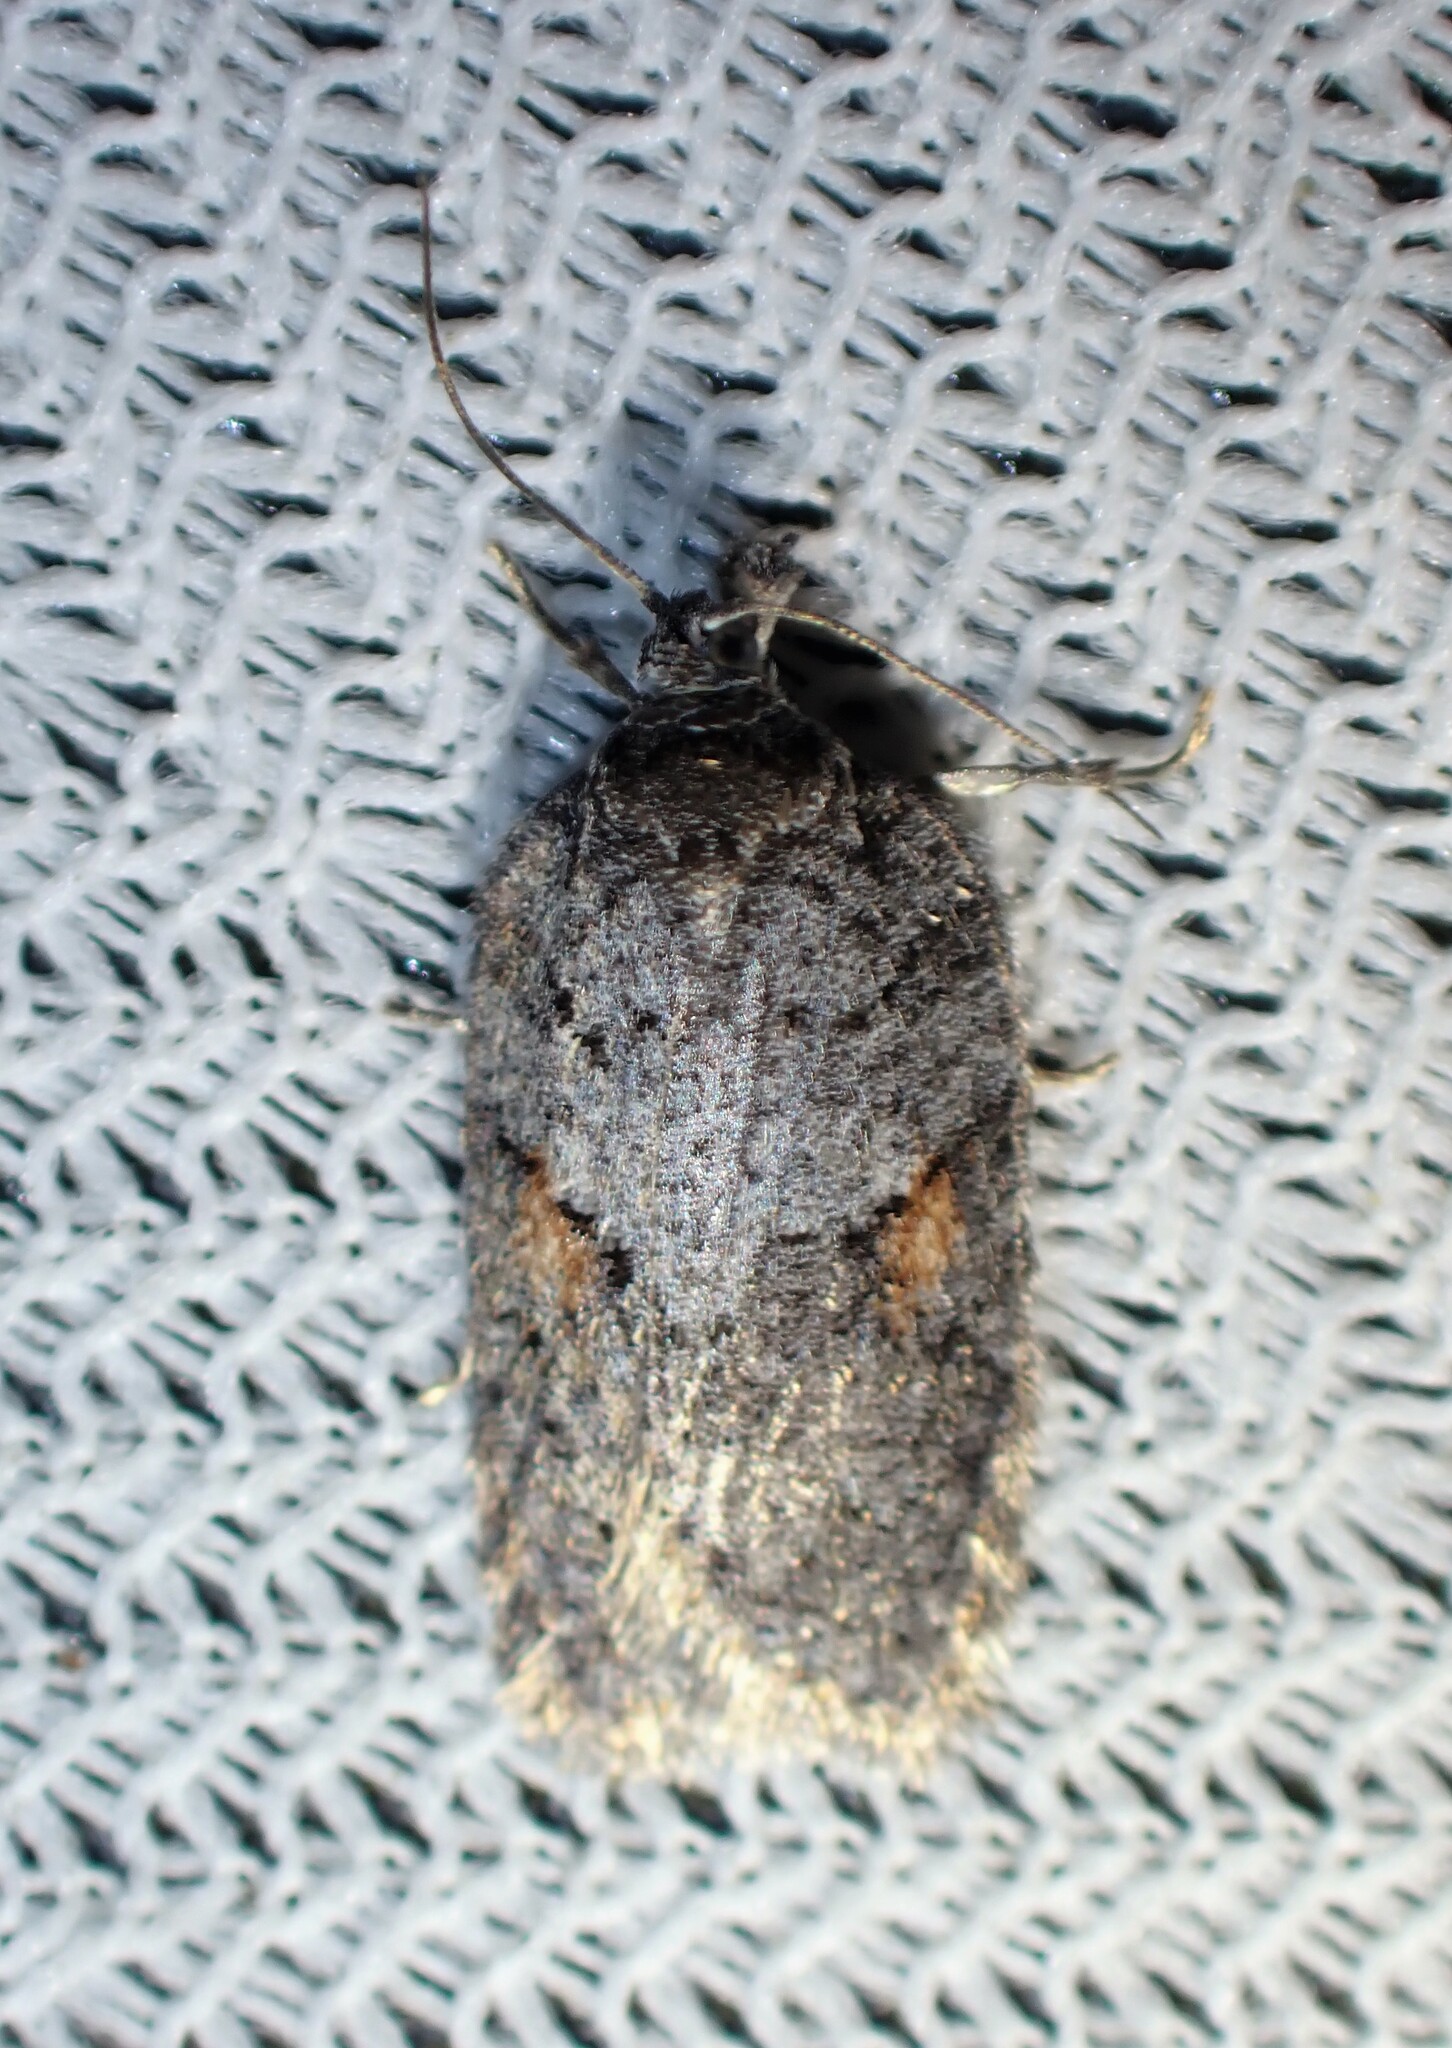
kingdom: Animalia
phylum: Arthropoda
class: Insecta
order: Lepidoptera
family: Tortricidae
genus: Acleris
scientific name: Acleris hudsoniana
